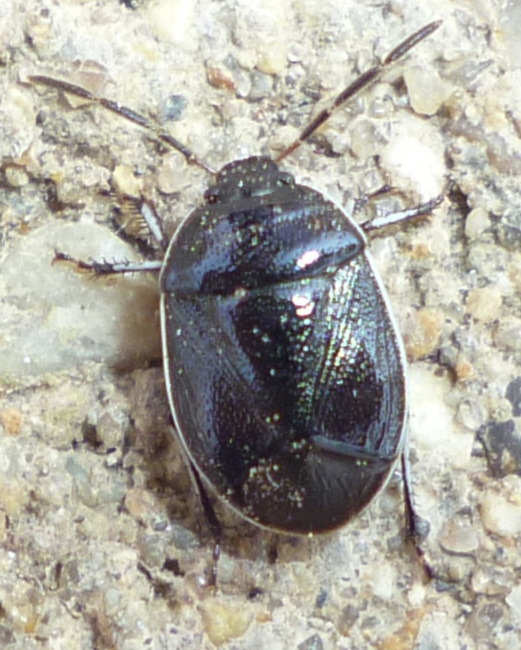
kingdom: Animalia
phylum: Arthropoda
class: Insecta
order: Hemiptera
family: Cydnidae
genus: Sehirus
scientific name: Sehirus cinctus
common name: White-margined burrower bug
